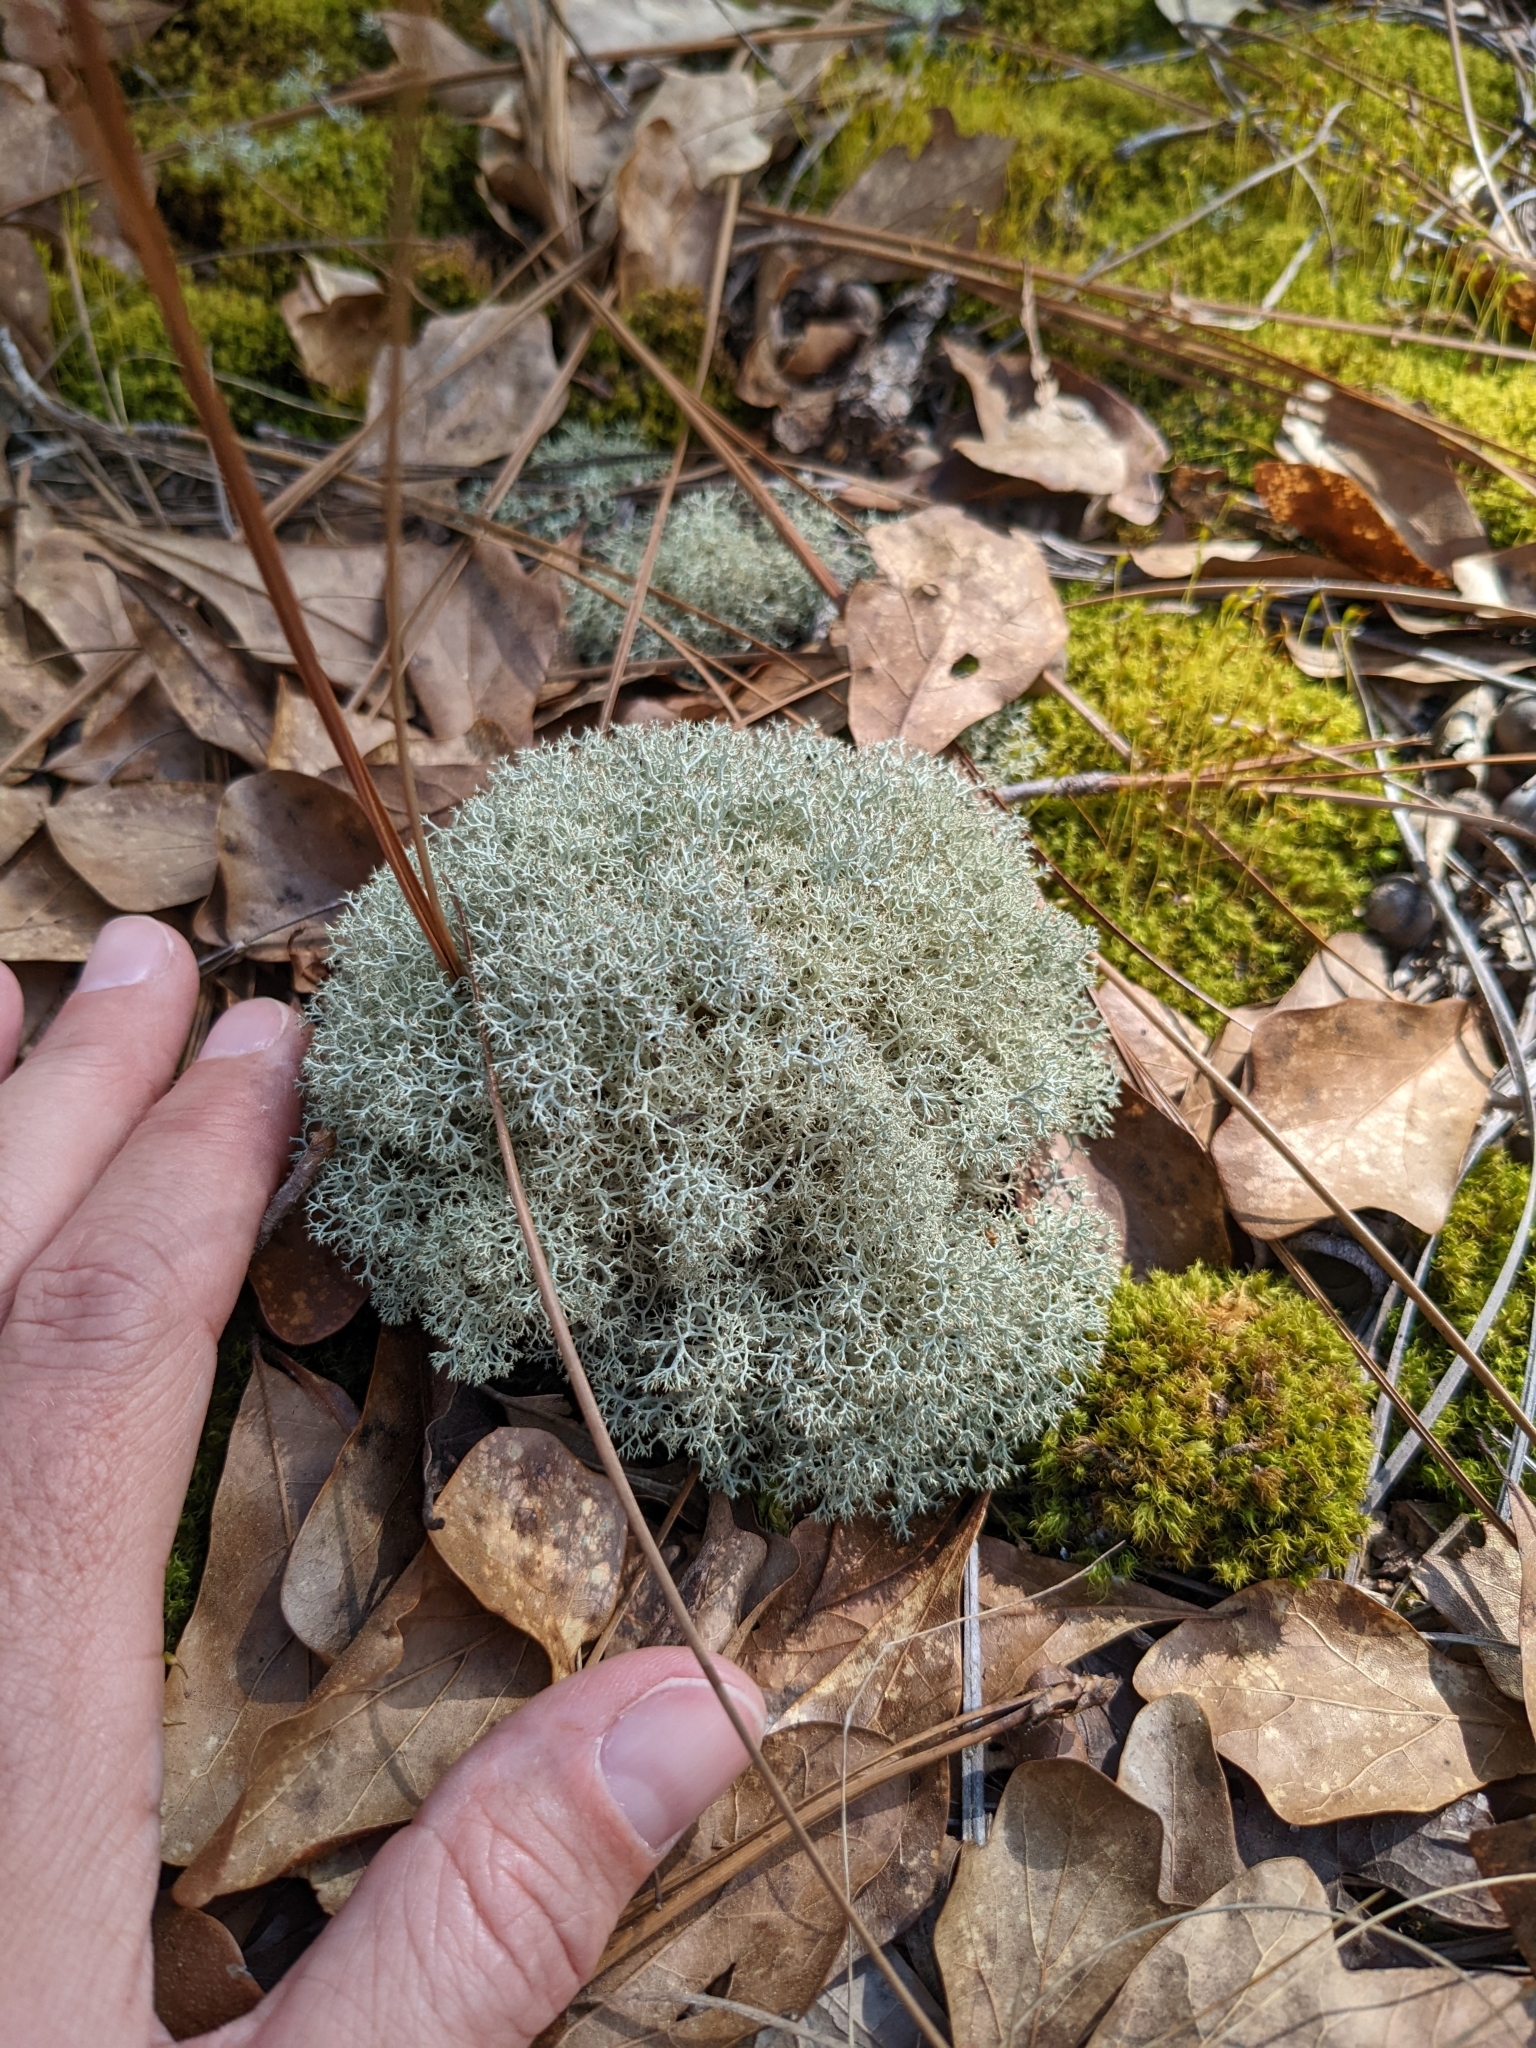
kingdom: Fungi
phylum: Ascomycota
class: Lecanoromycetes
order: Lecanorales
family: Cladoniaceae
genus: Cladonia
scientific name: Cladonia rangiferina
